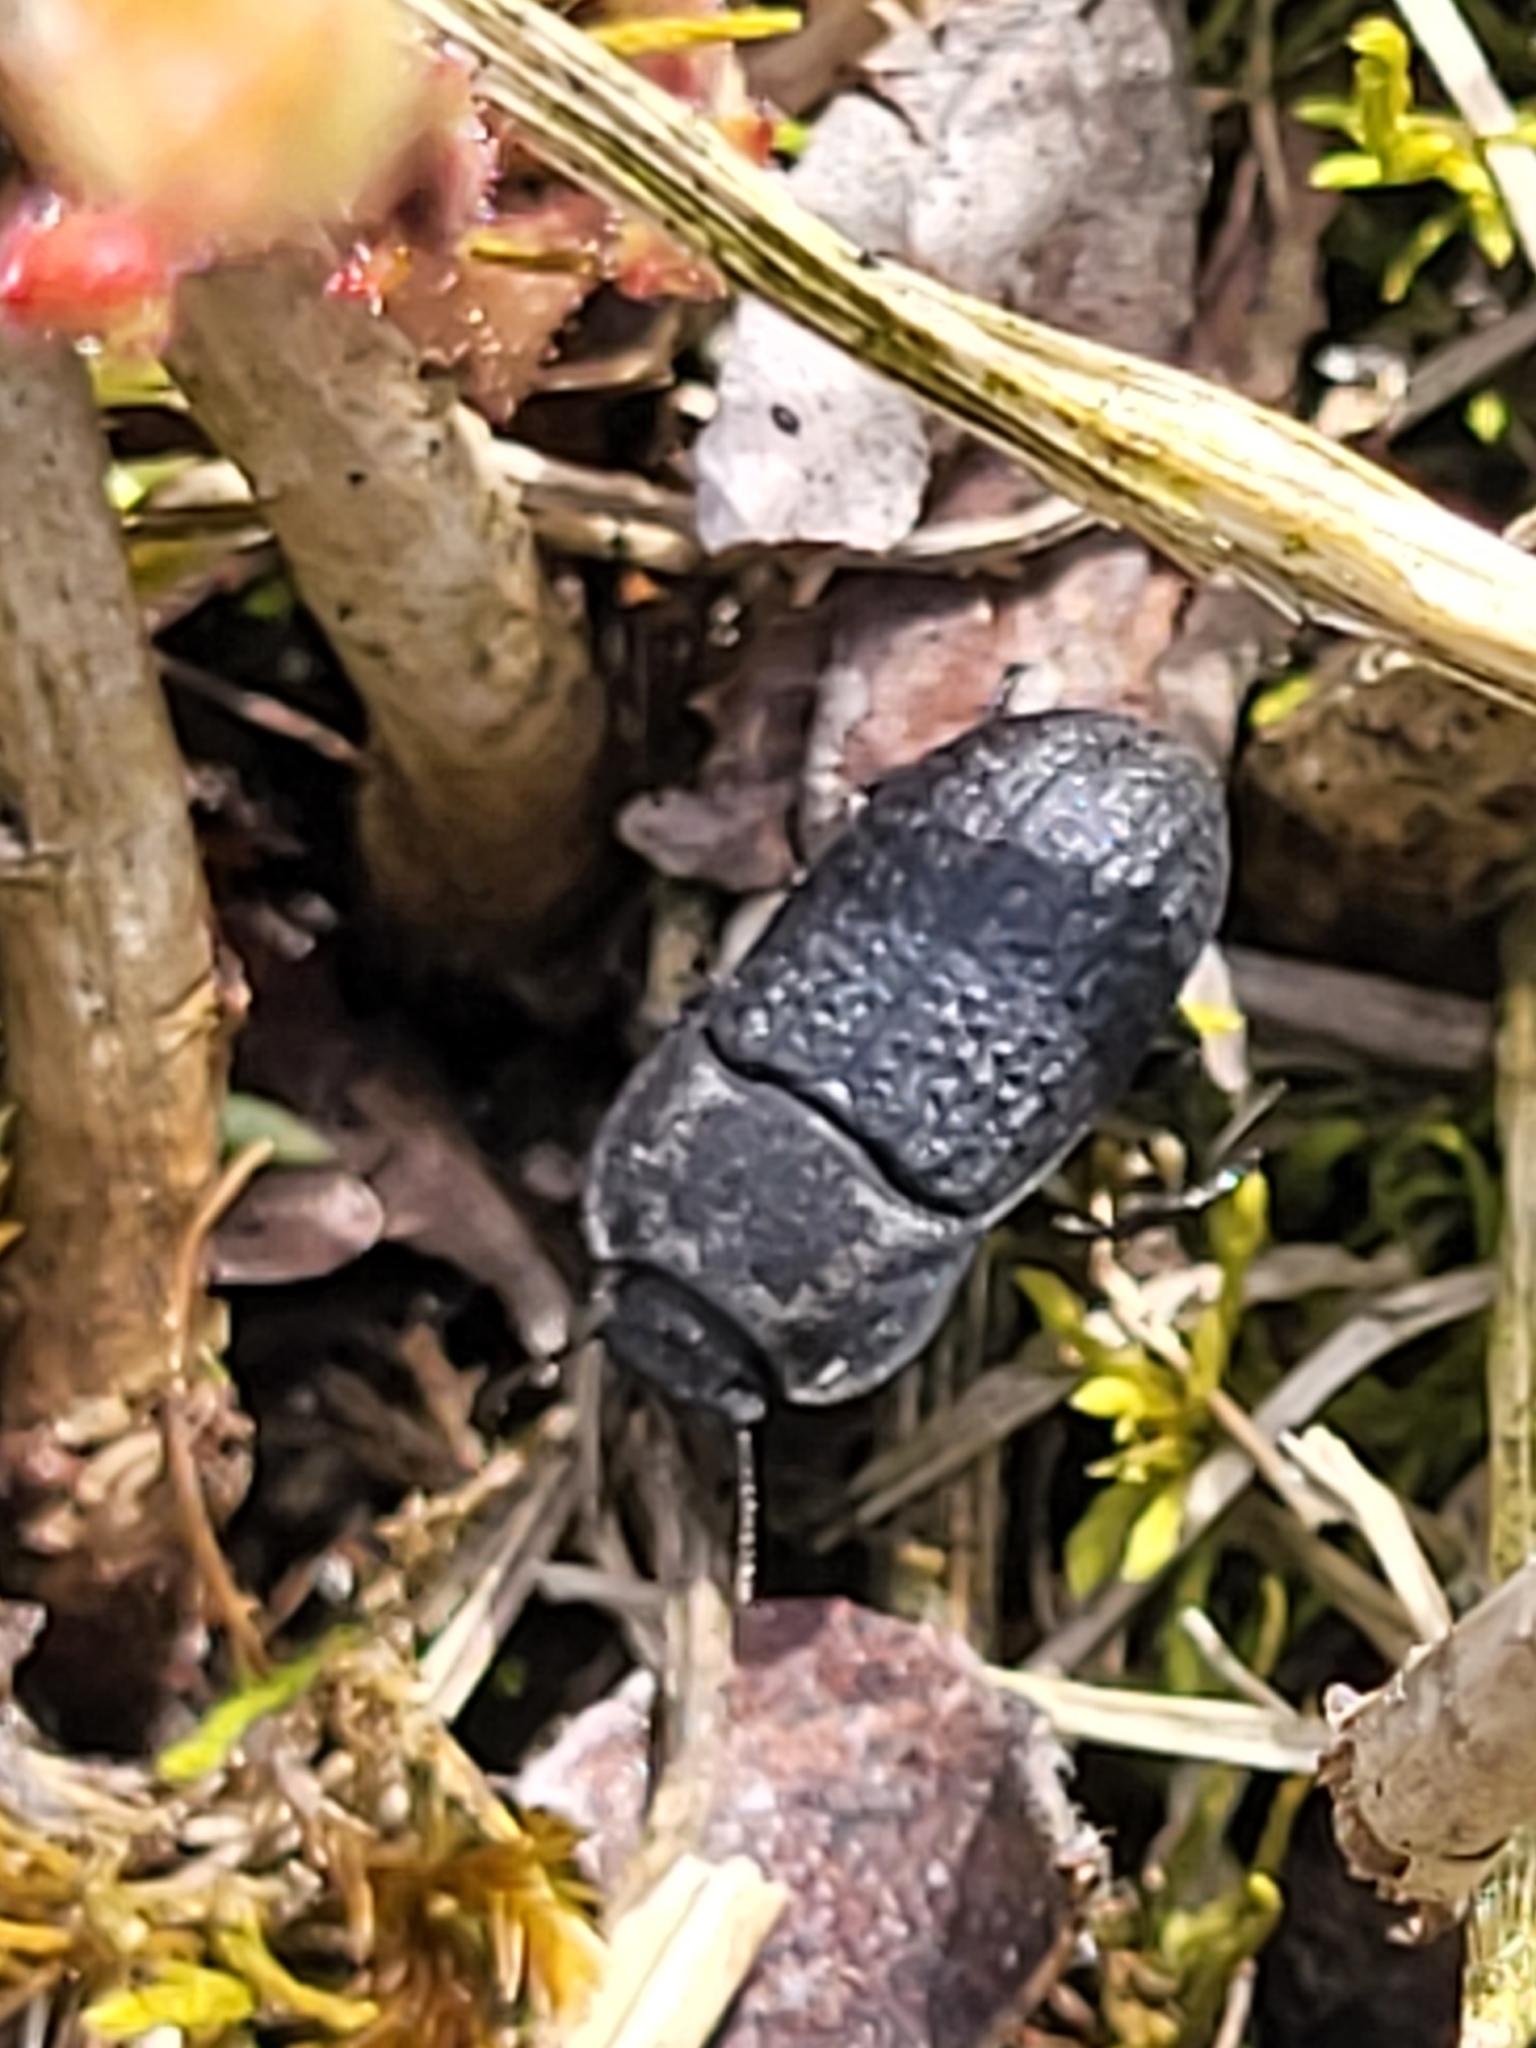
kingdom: Animalia
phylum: Arthropoda
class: Insecta
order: Coleoptera
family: Tenebrionidae
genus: Opatrum
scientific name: Opatrum sabulosum
